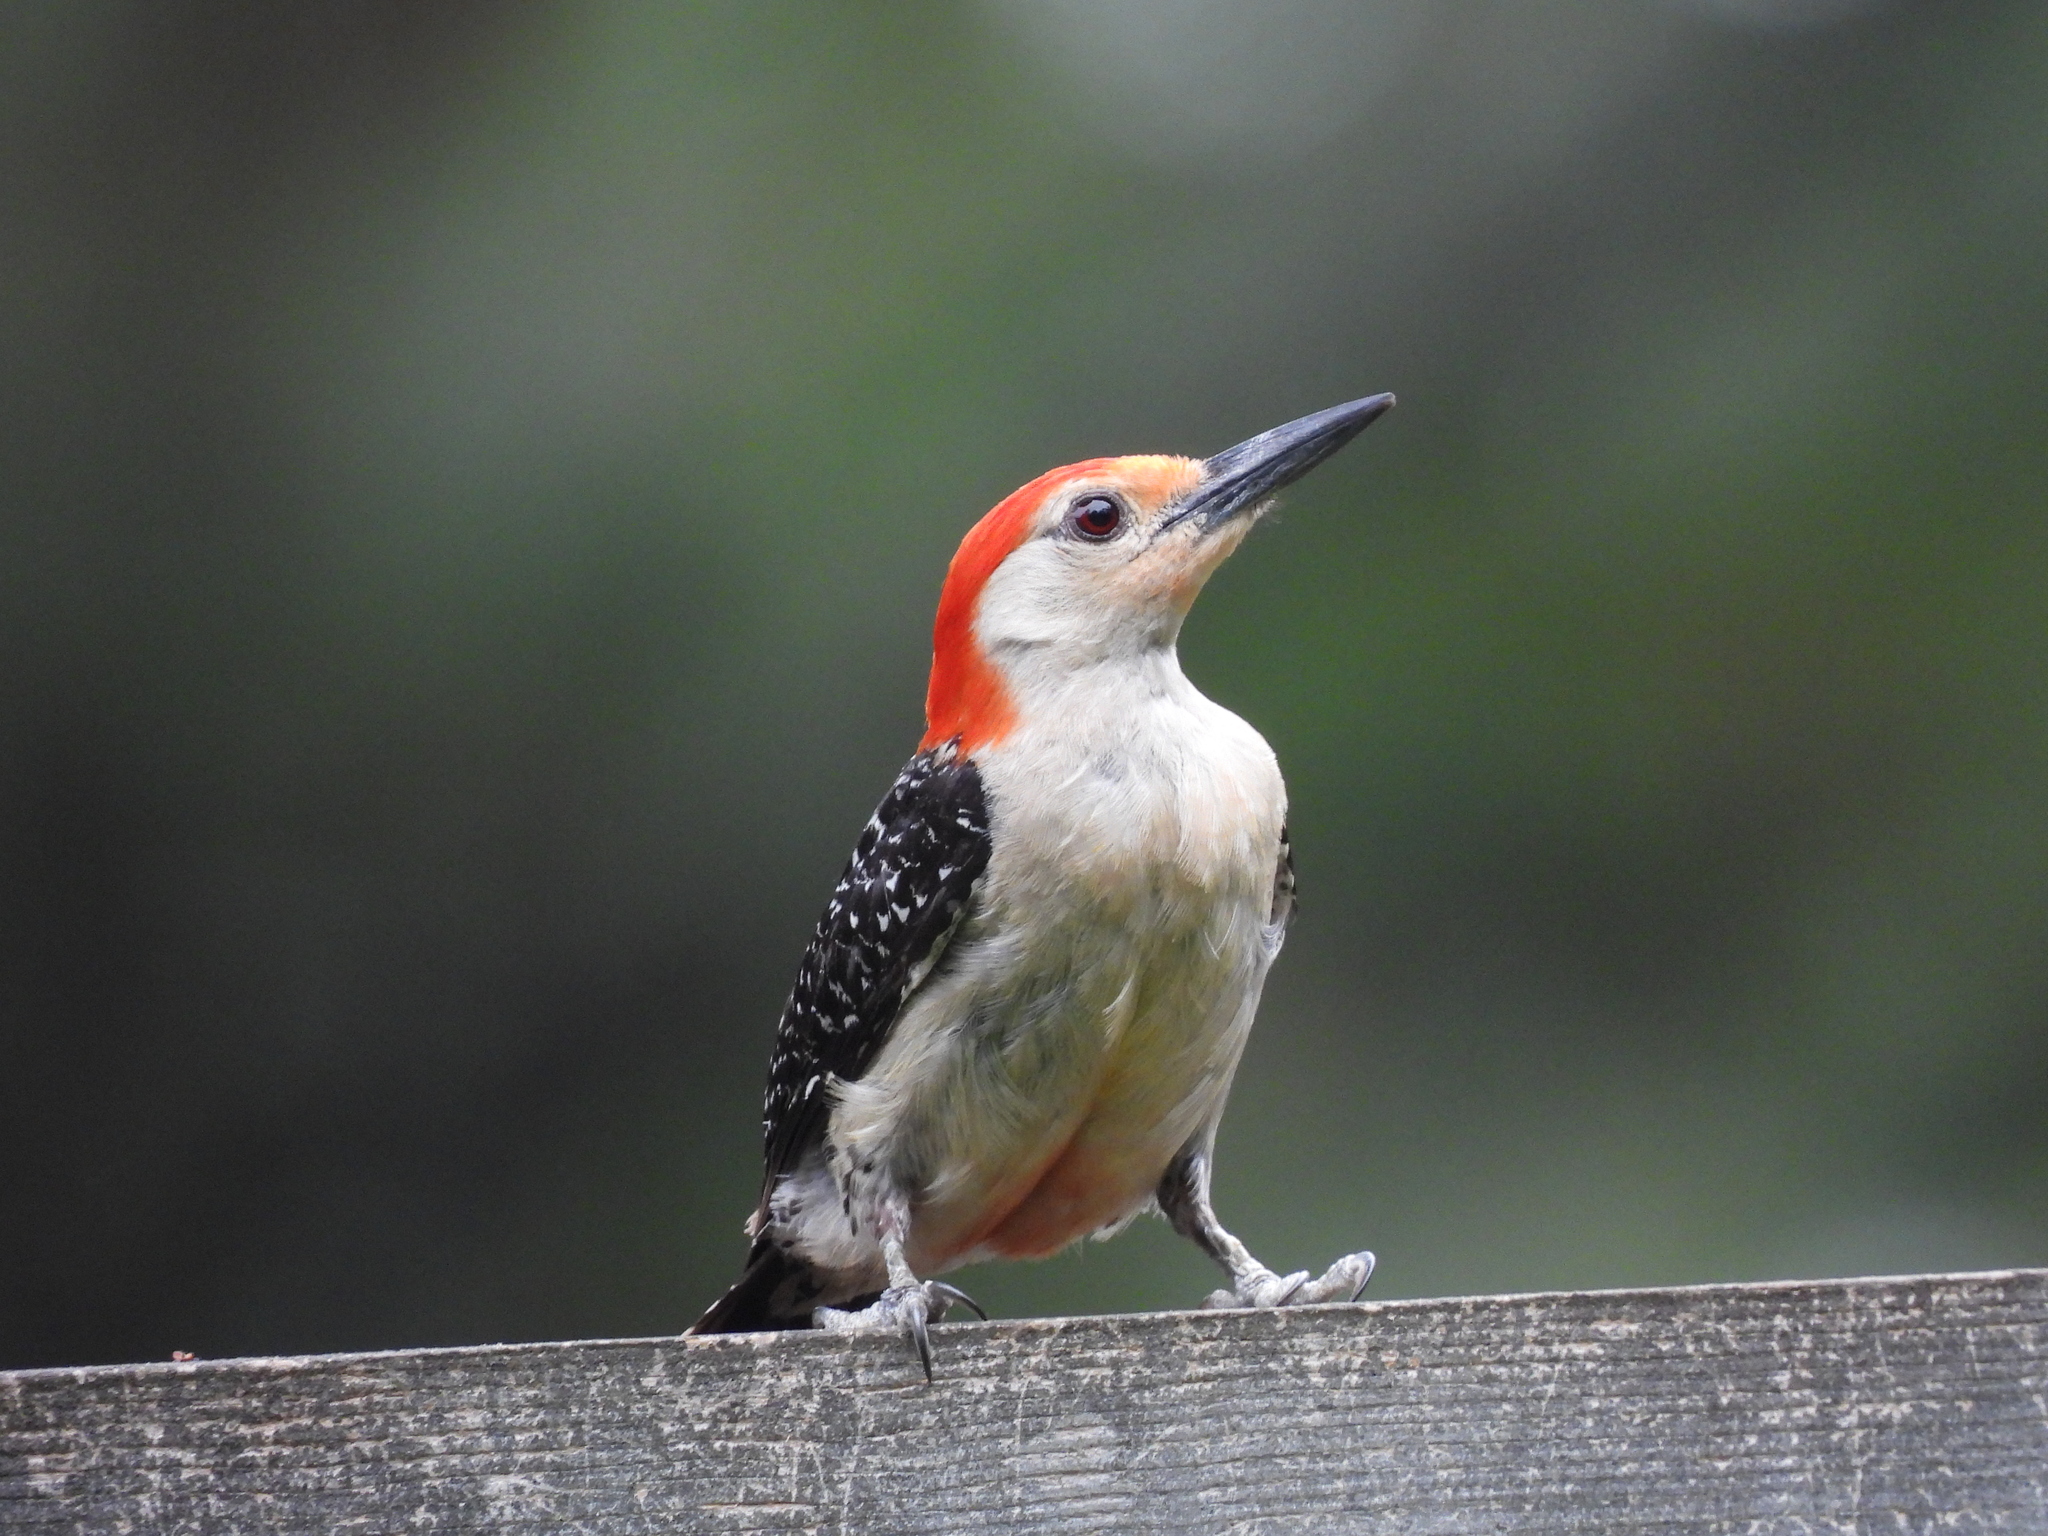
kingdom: Animalia
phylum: Chordata
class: Aves
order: Piciformes
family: Picidae
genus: Melanerpes
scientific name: Melanerpes carolinus
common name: Red-bellied woodpecker
